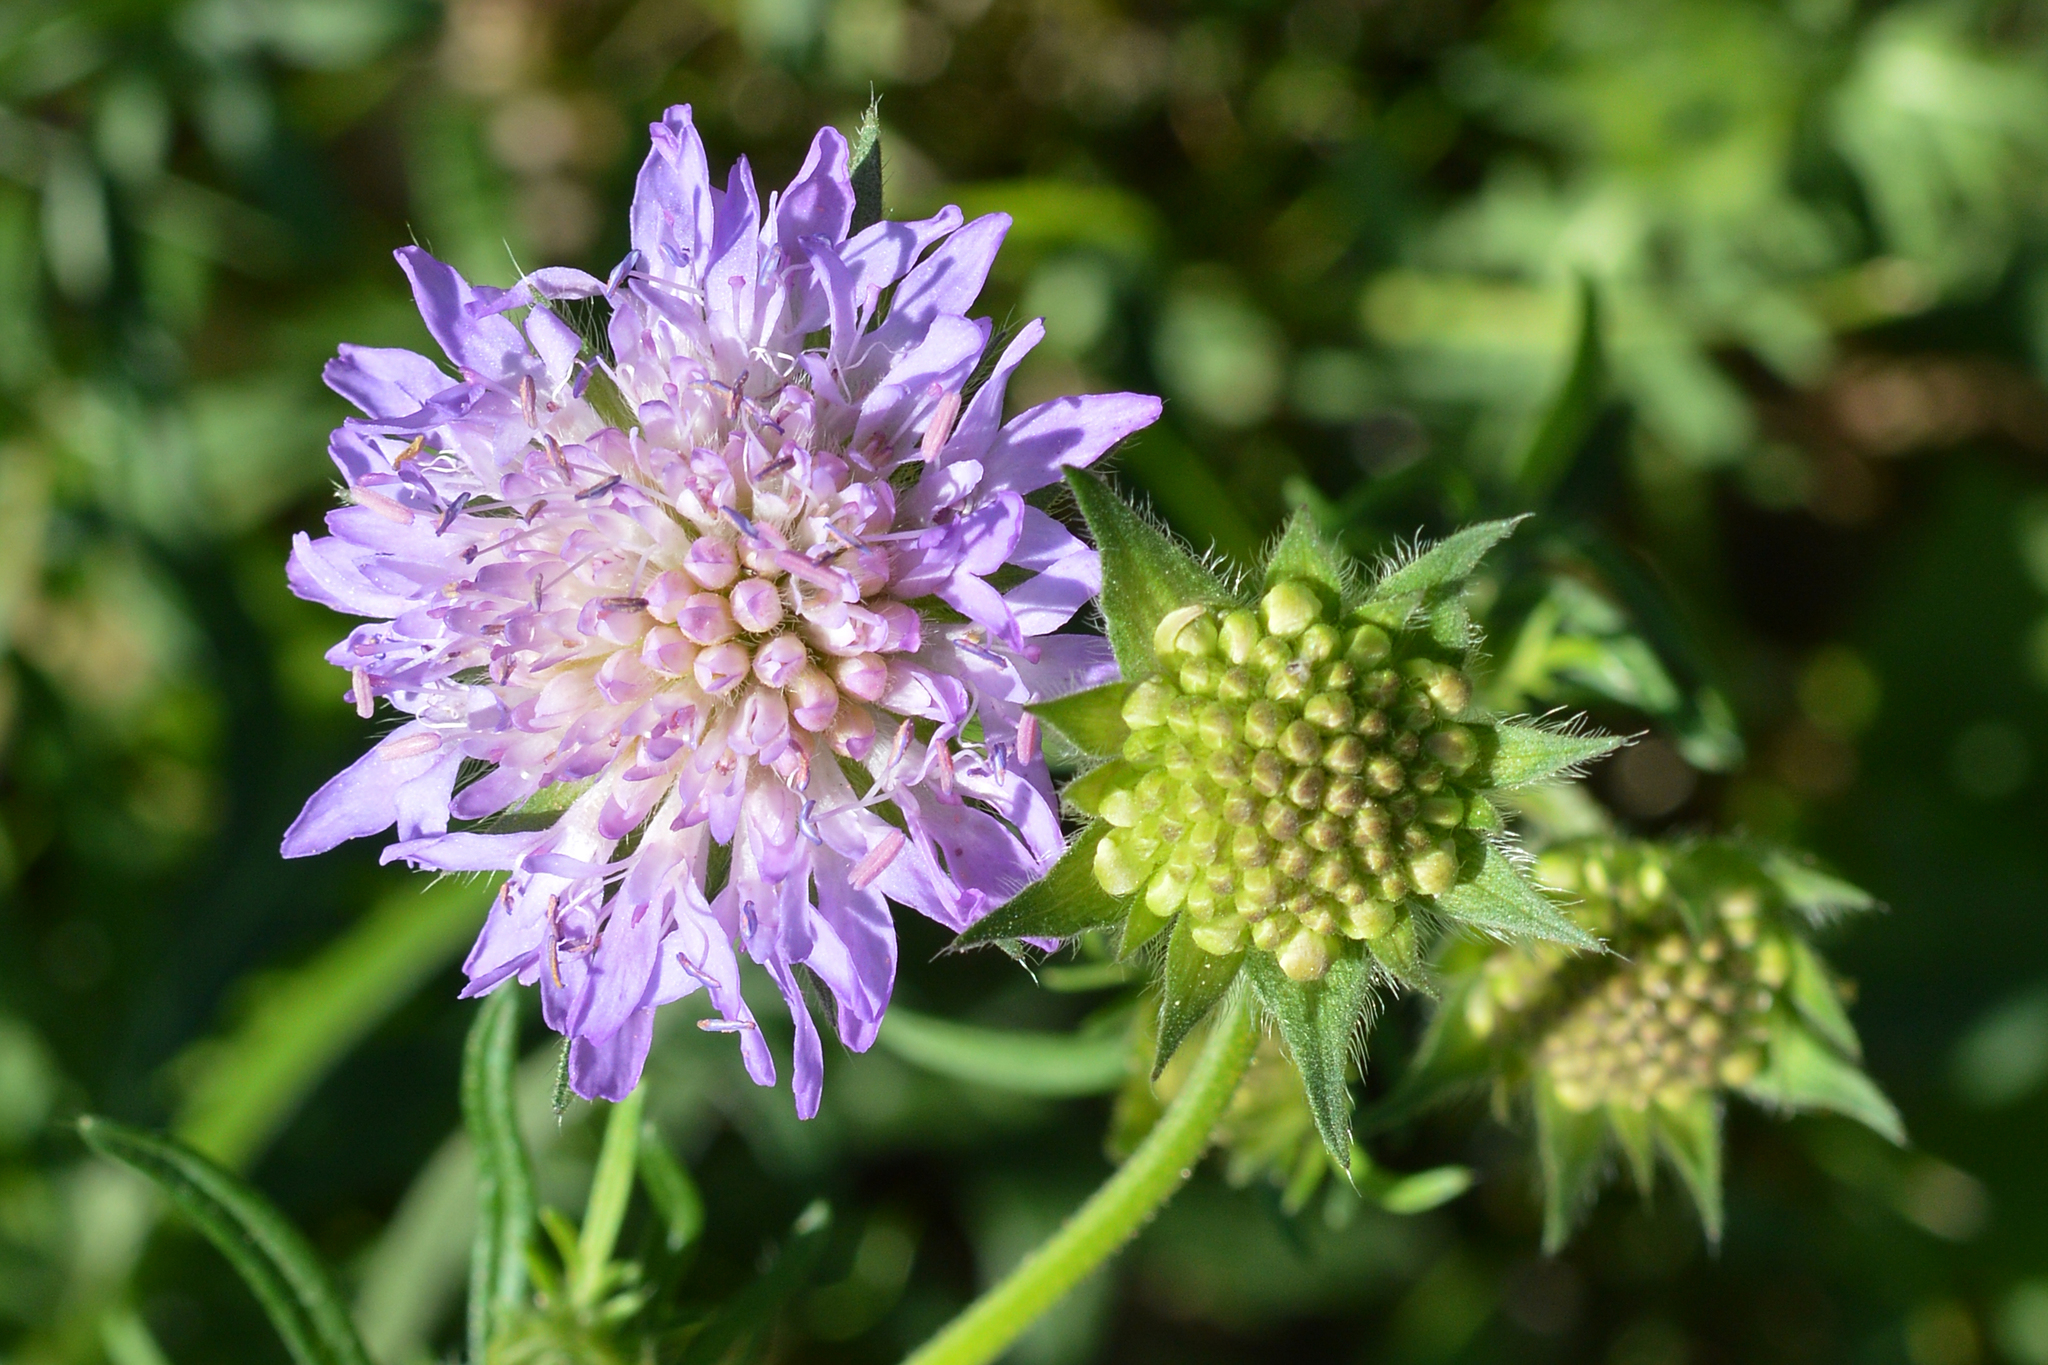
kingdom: Plantae
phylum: Tracheophyta
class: Magnoliopsida
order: Dipsacales
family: Caprifoliaceae
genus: Knautia
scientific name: Knautia arvensis
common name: Field scabiosa
